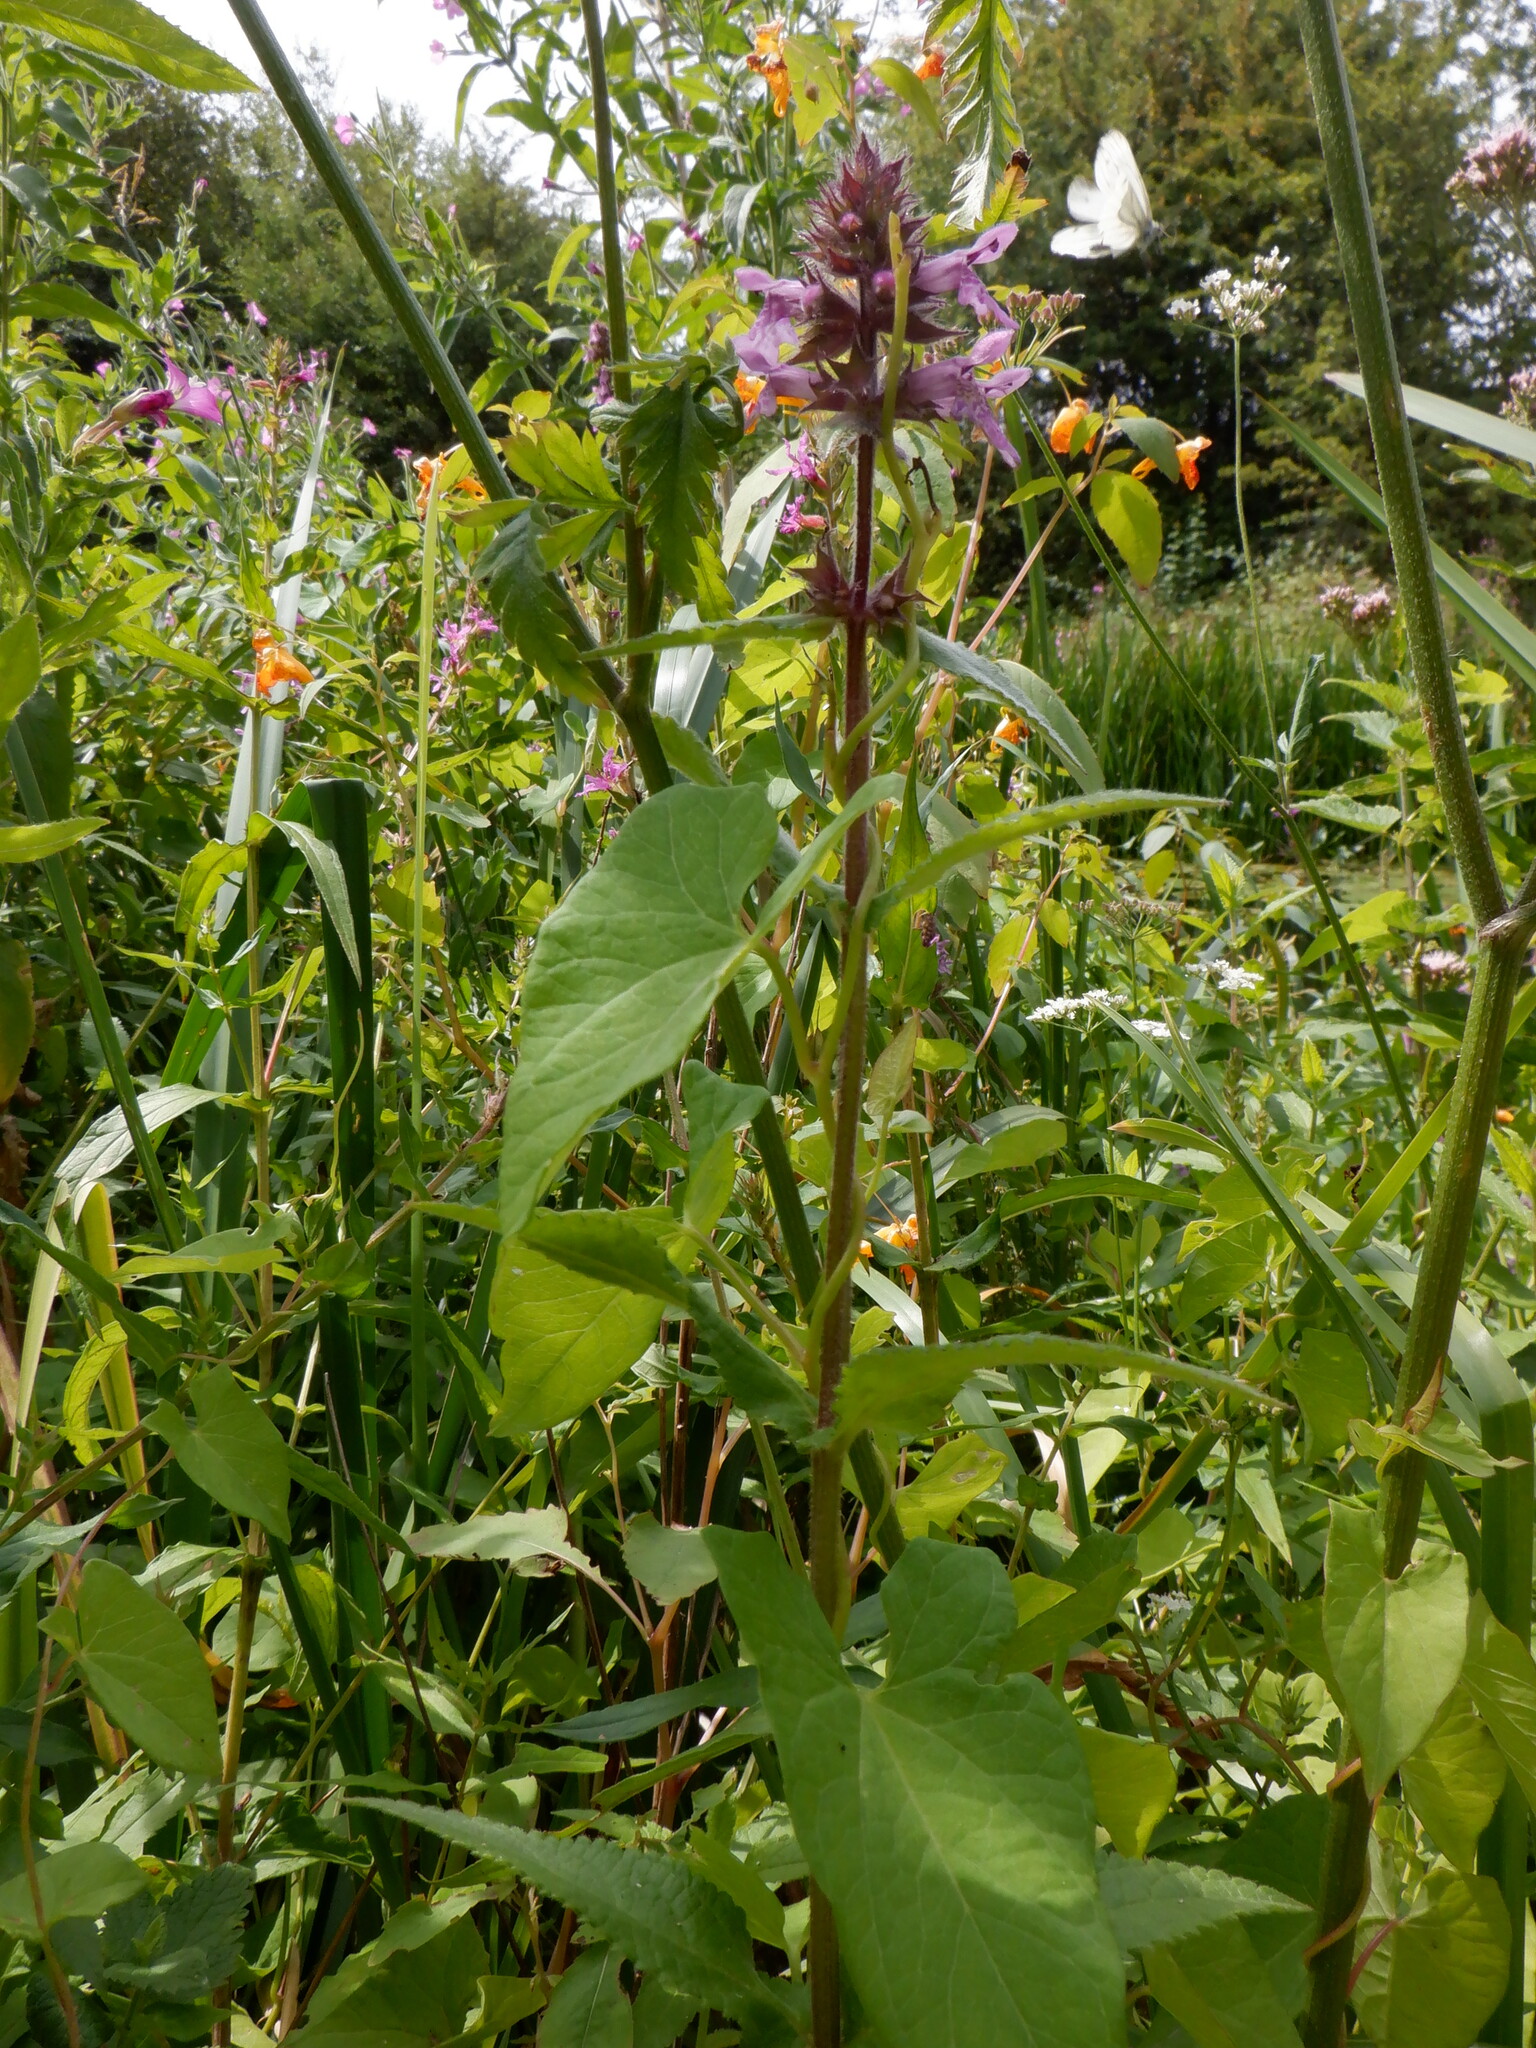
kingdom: Plantae
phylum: Tracheophyta
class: Magnoliopsida
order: Lamiales
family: Lamiaceae
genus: Stachys
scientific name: Stachys palustris
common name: Marsh woundwort
